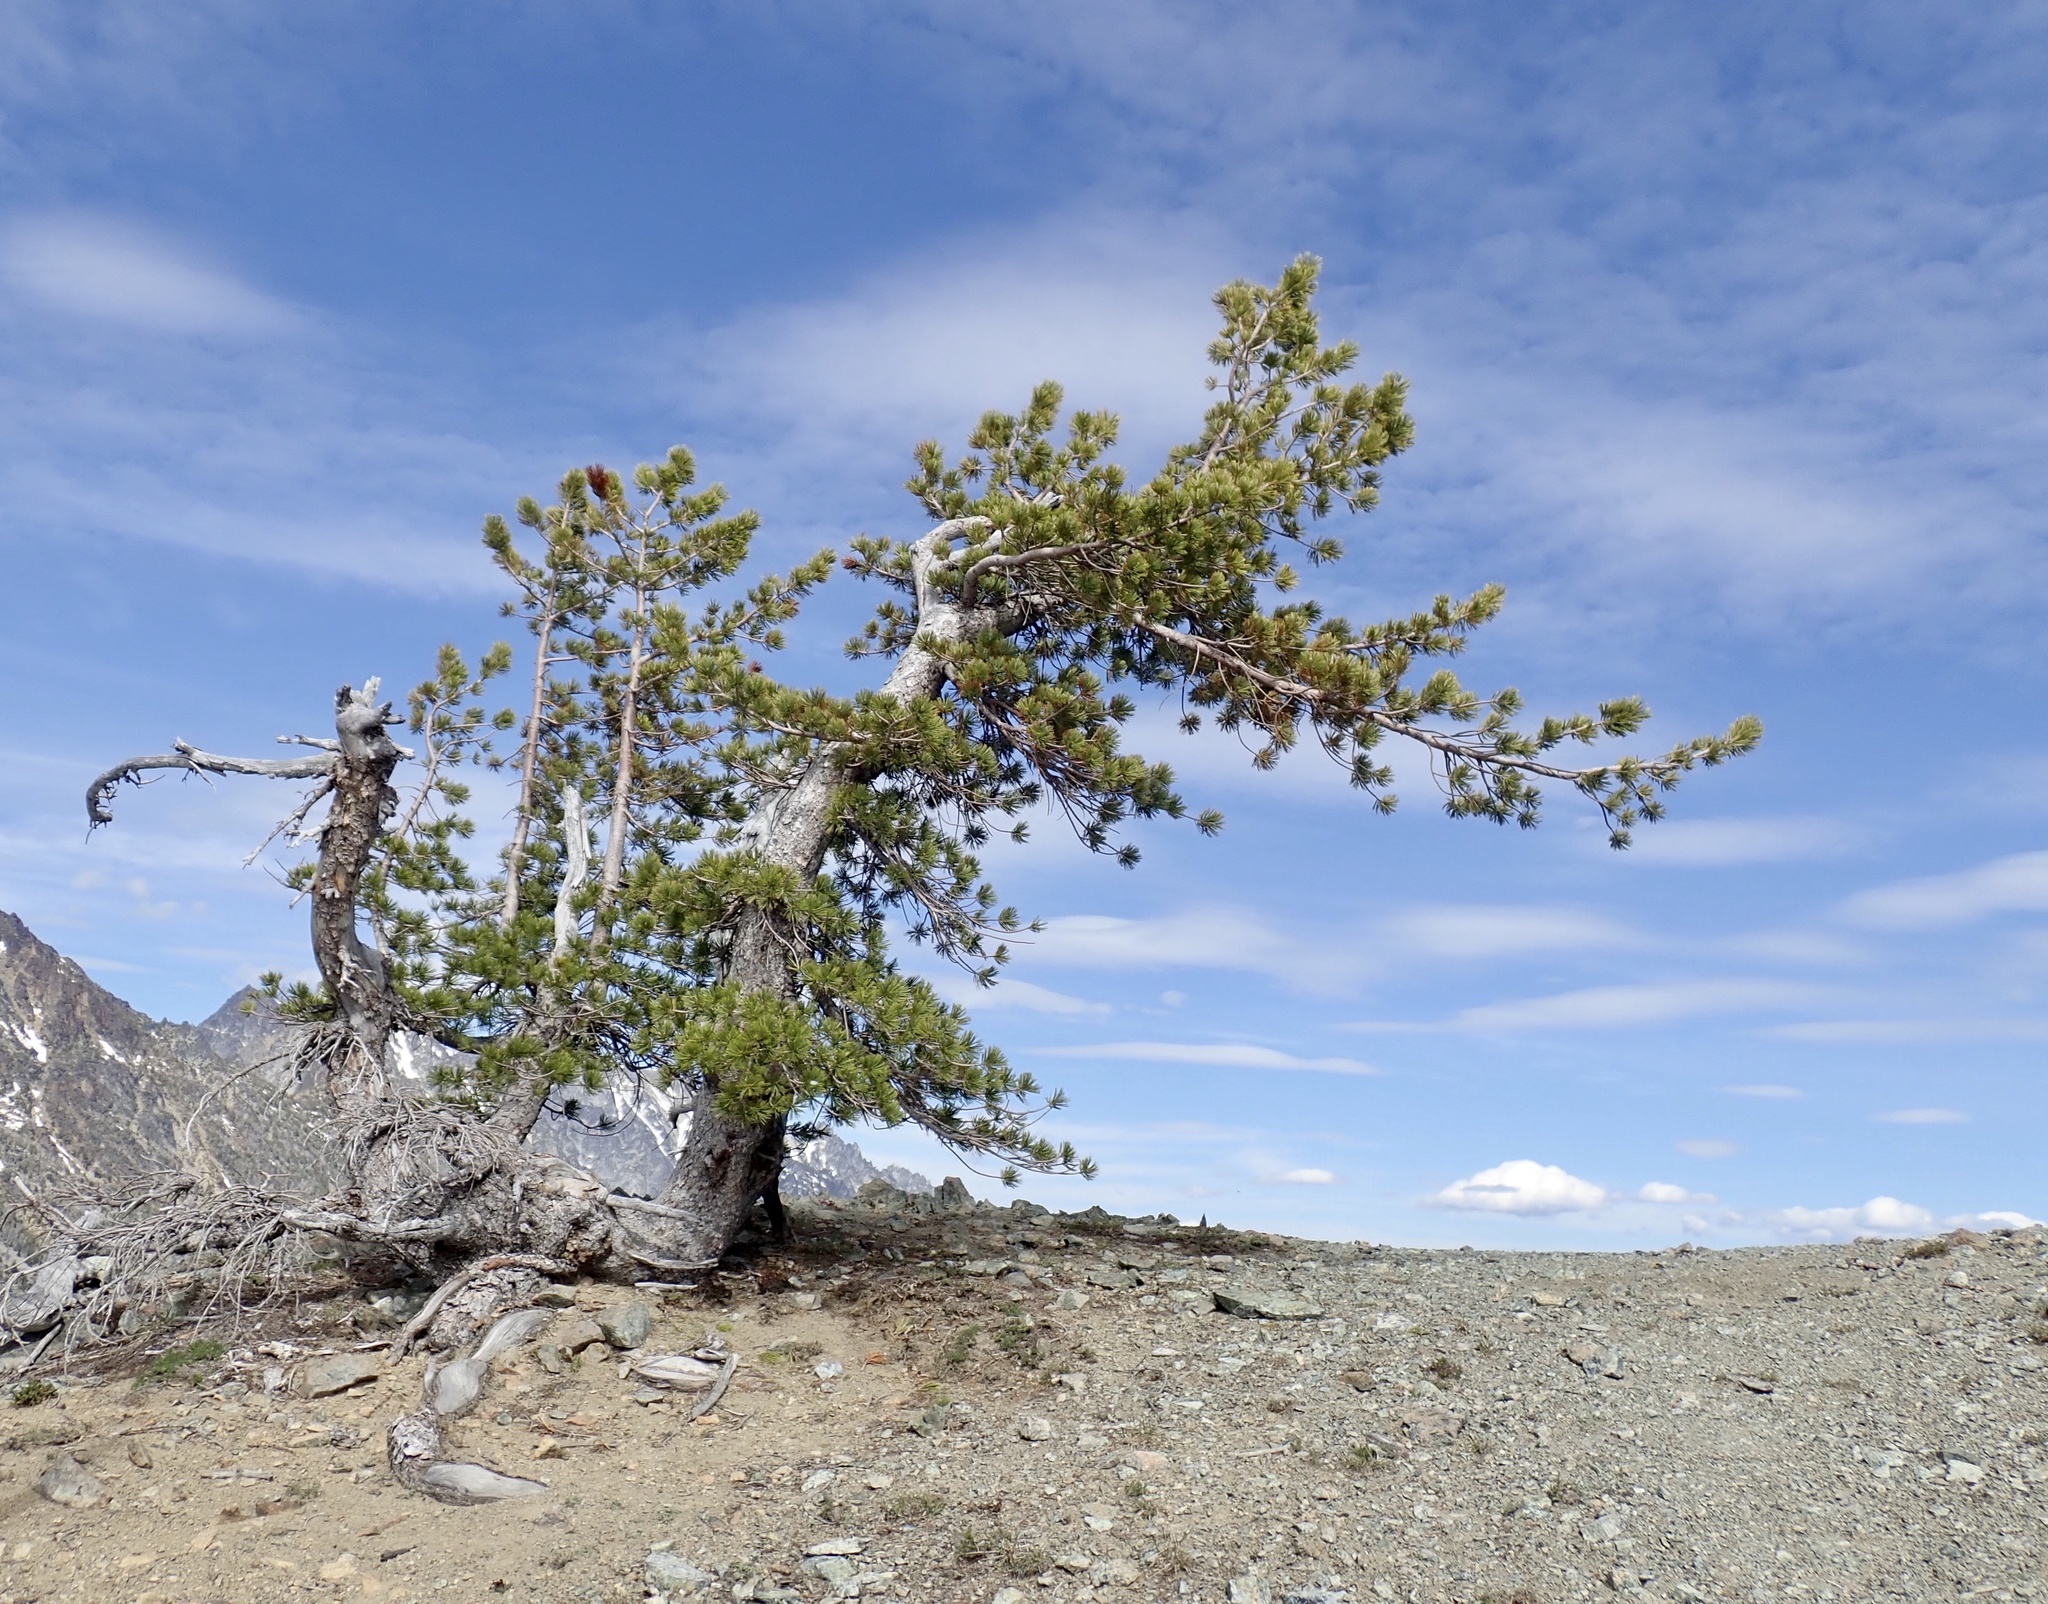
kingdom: Plantae
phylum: Tracheophyta
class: Pinopsida
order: Pinales
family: Pinaceae
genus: Pinus
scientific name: Pinus albicaulis
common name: Whitebark pine
